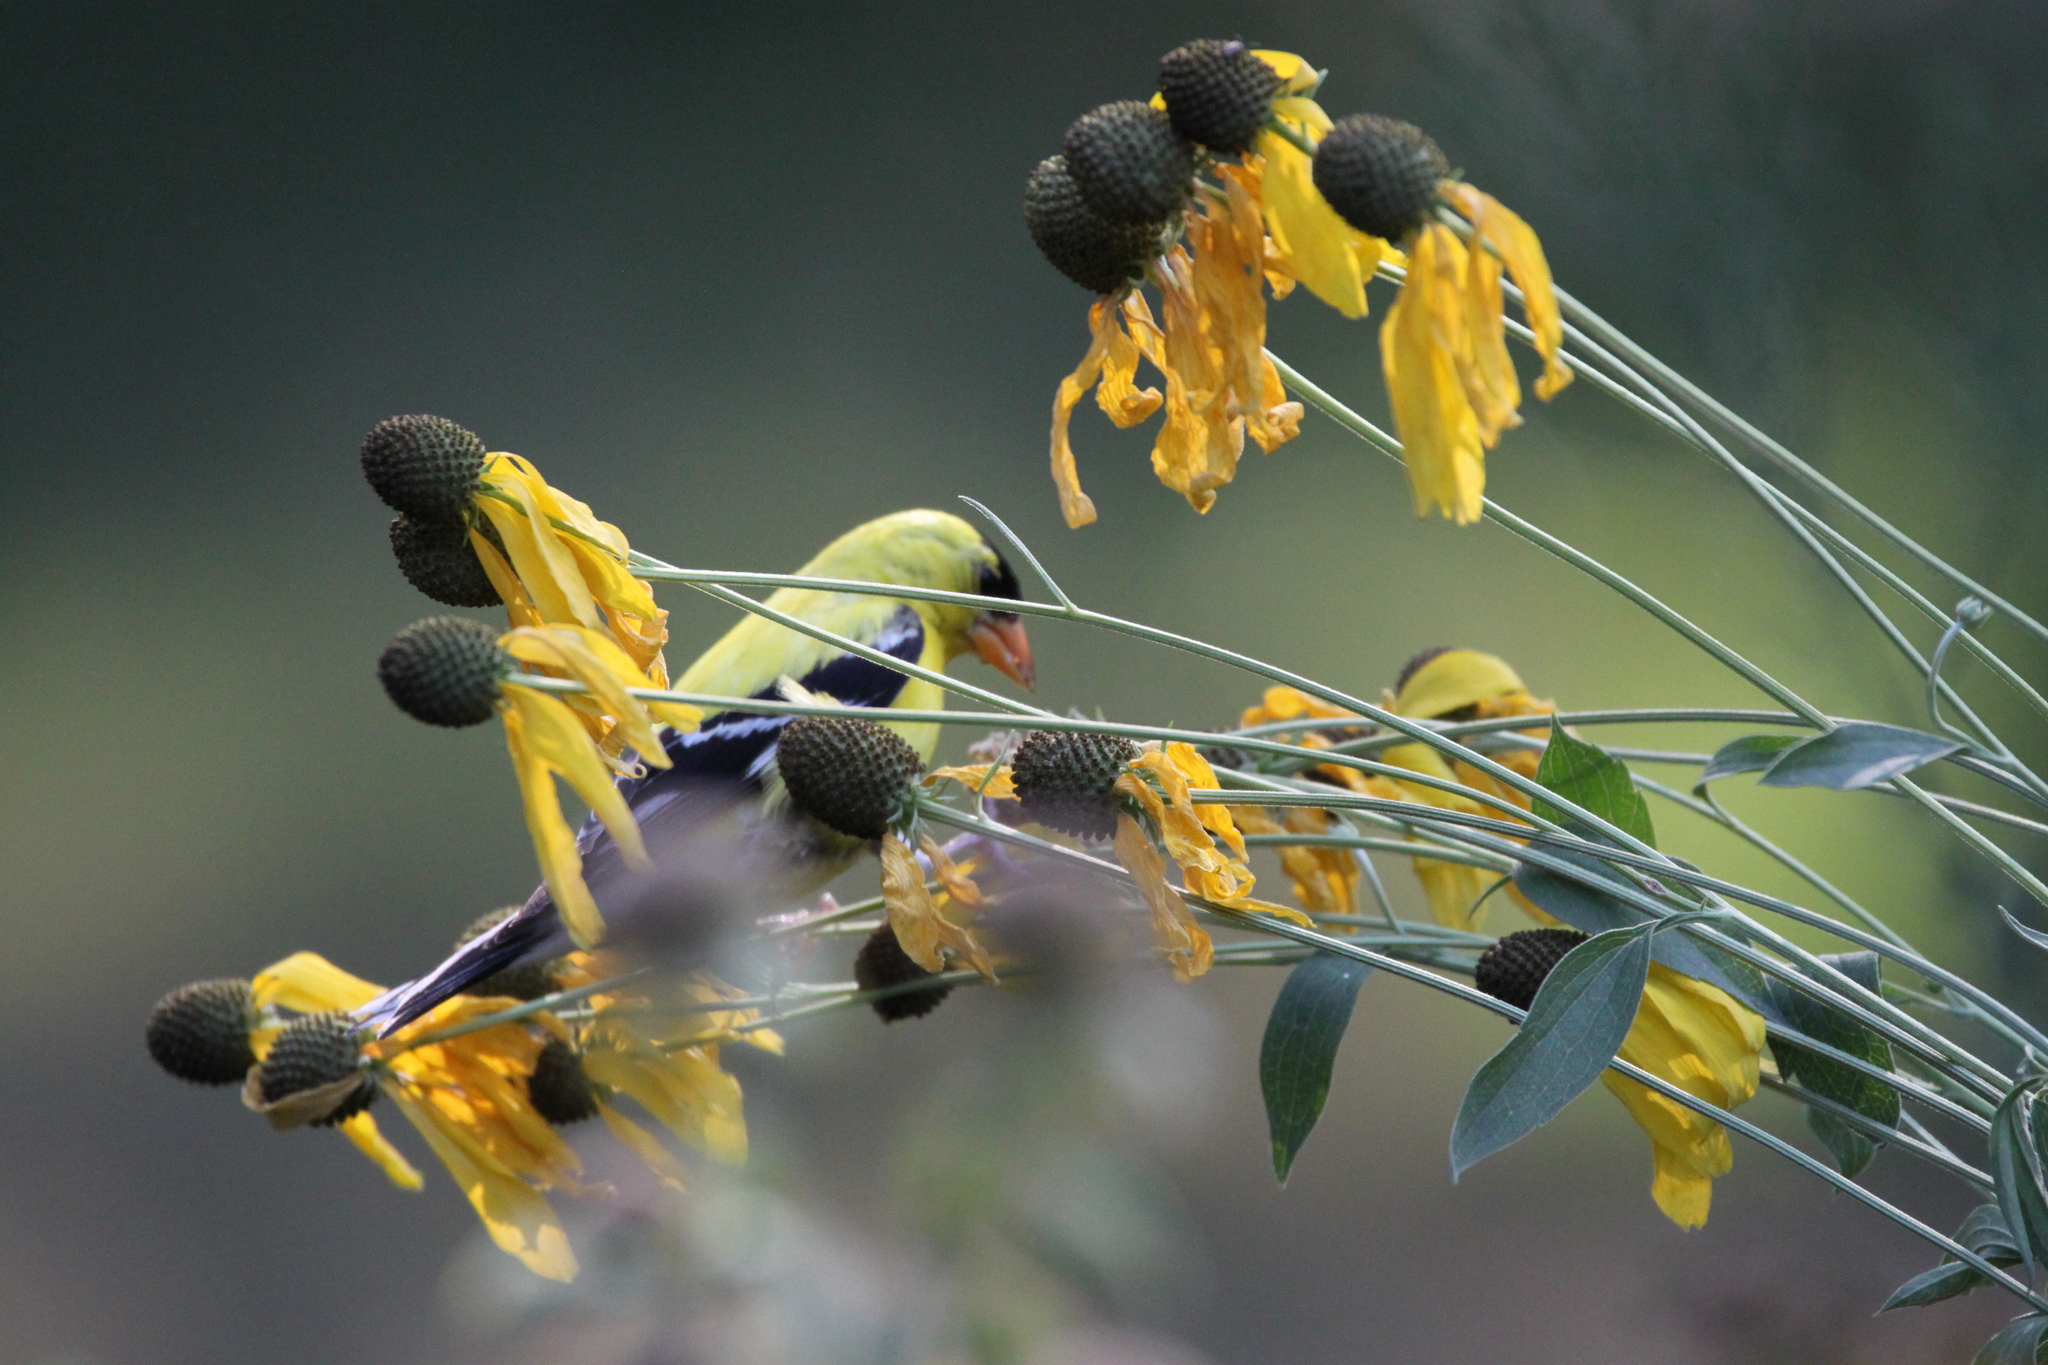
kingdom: Animalia
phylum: Chordata
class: Aves
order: Passeriformes
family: Fringillidae
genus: Spinus
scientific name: Spinus tristis
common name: American goldfinch
